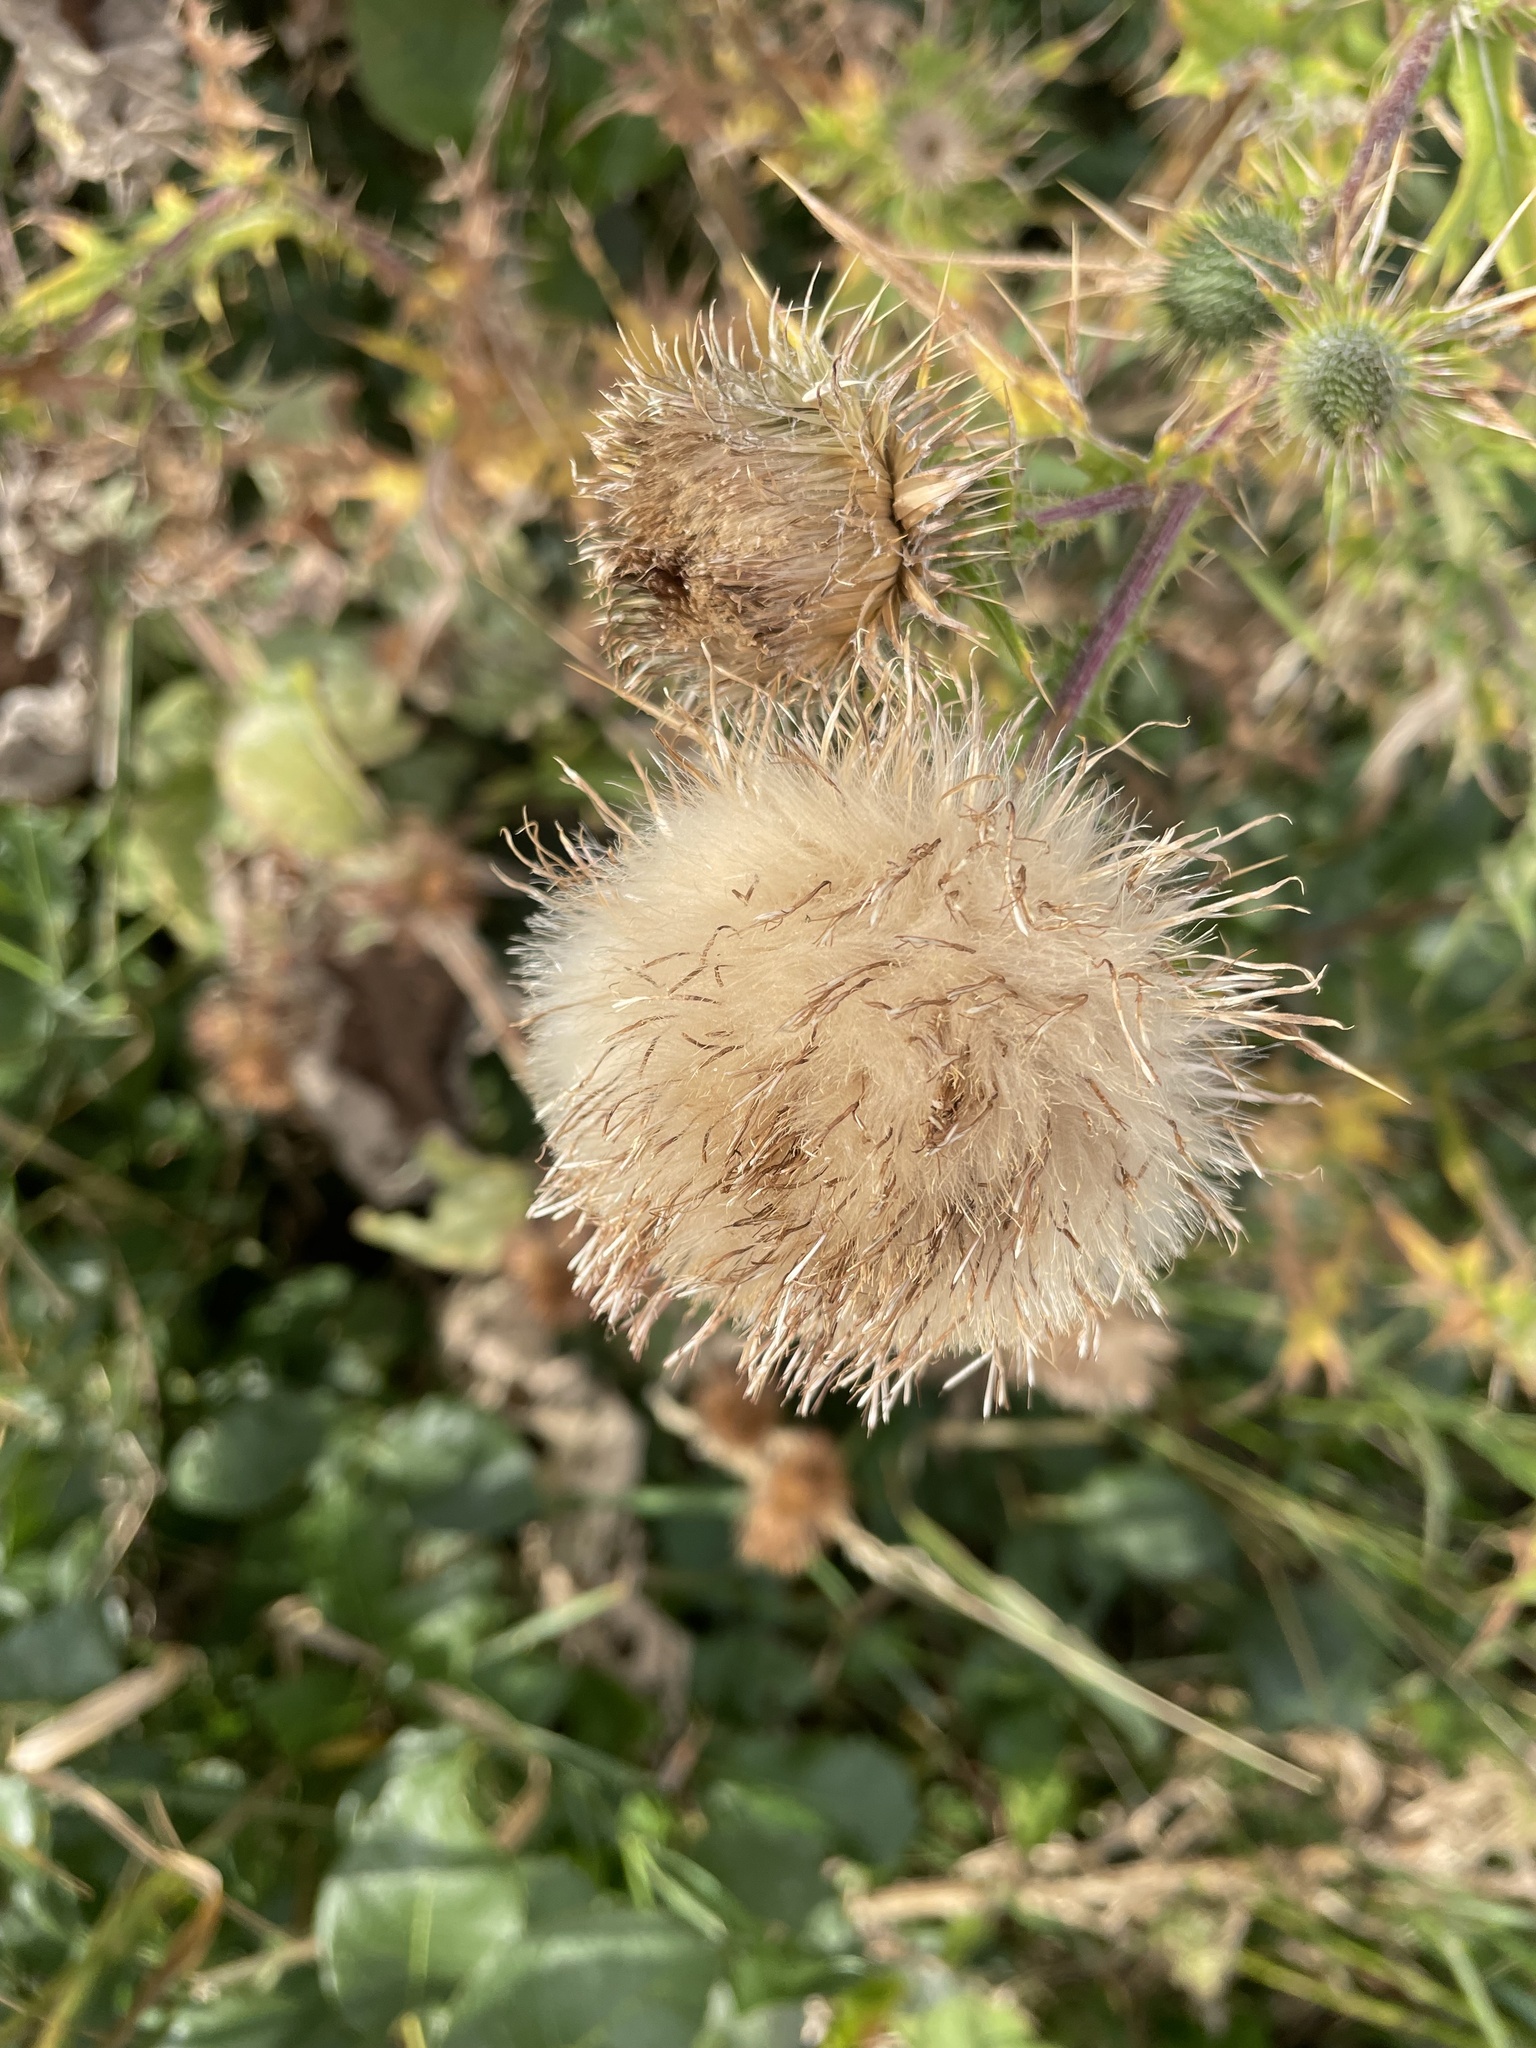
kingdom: Plantae
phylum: Tracheophyta
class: Magnoliopsida
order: Asterales
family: Asteraceae
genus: Cirsium
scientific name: Cirsium vulgare
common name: Bull thistle
